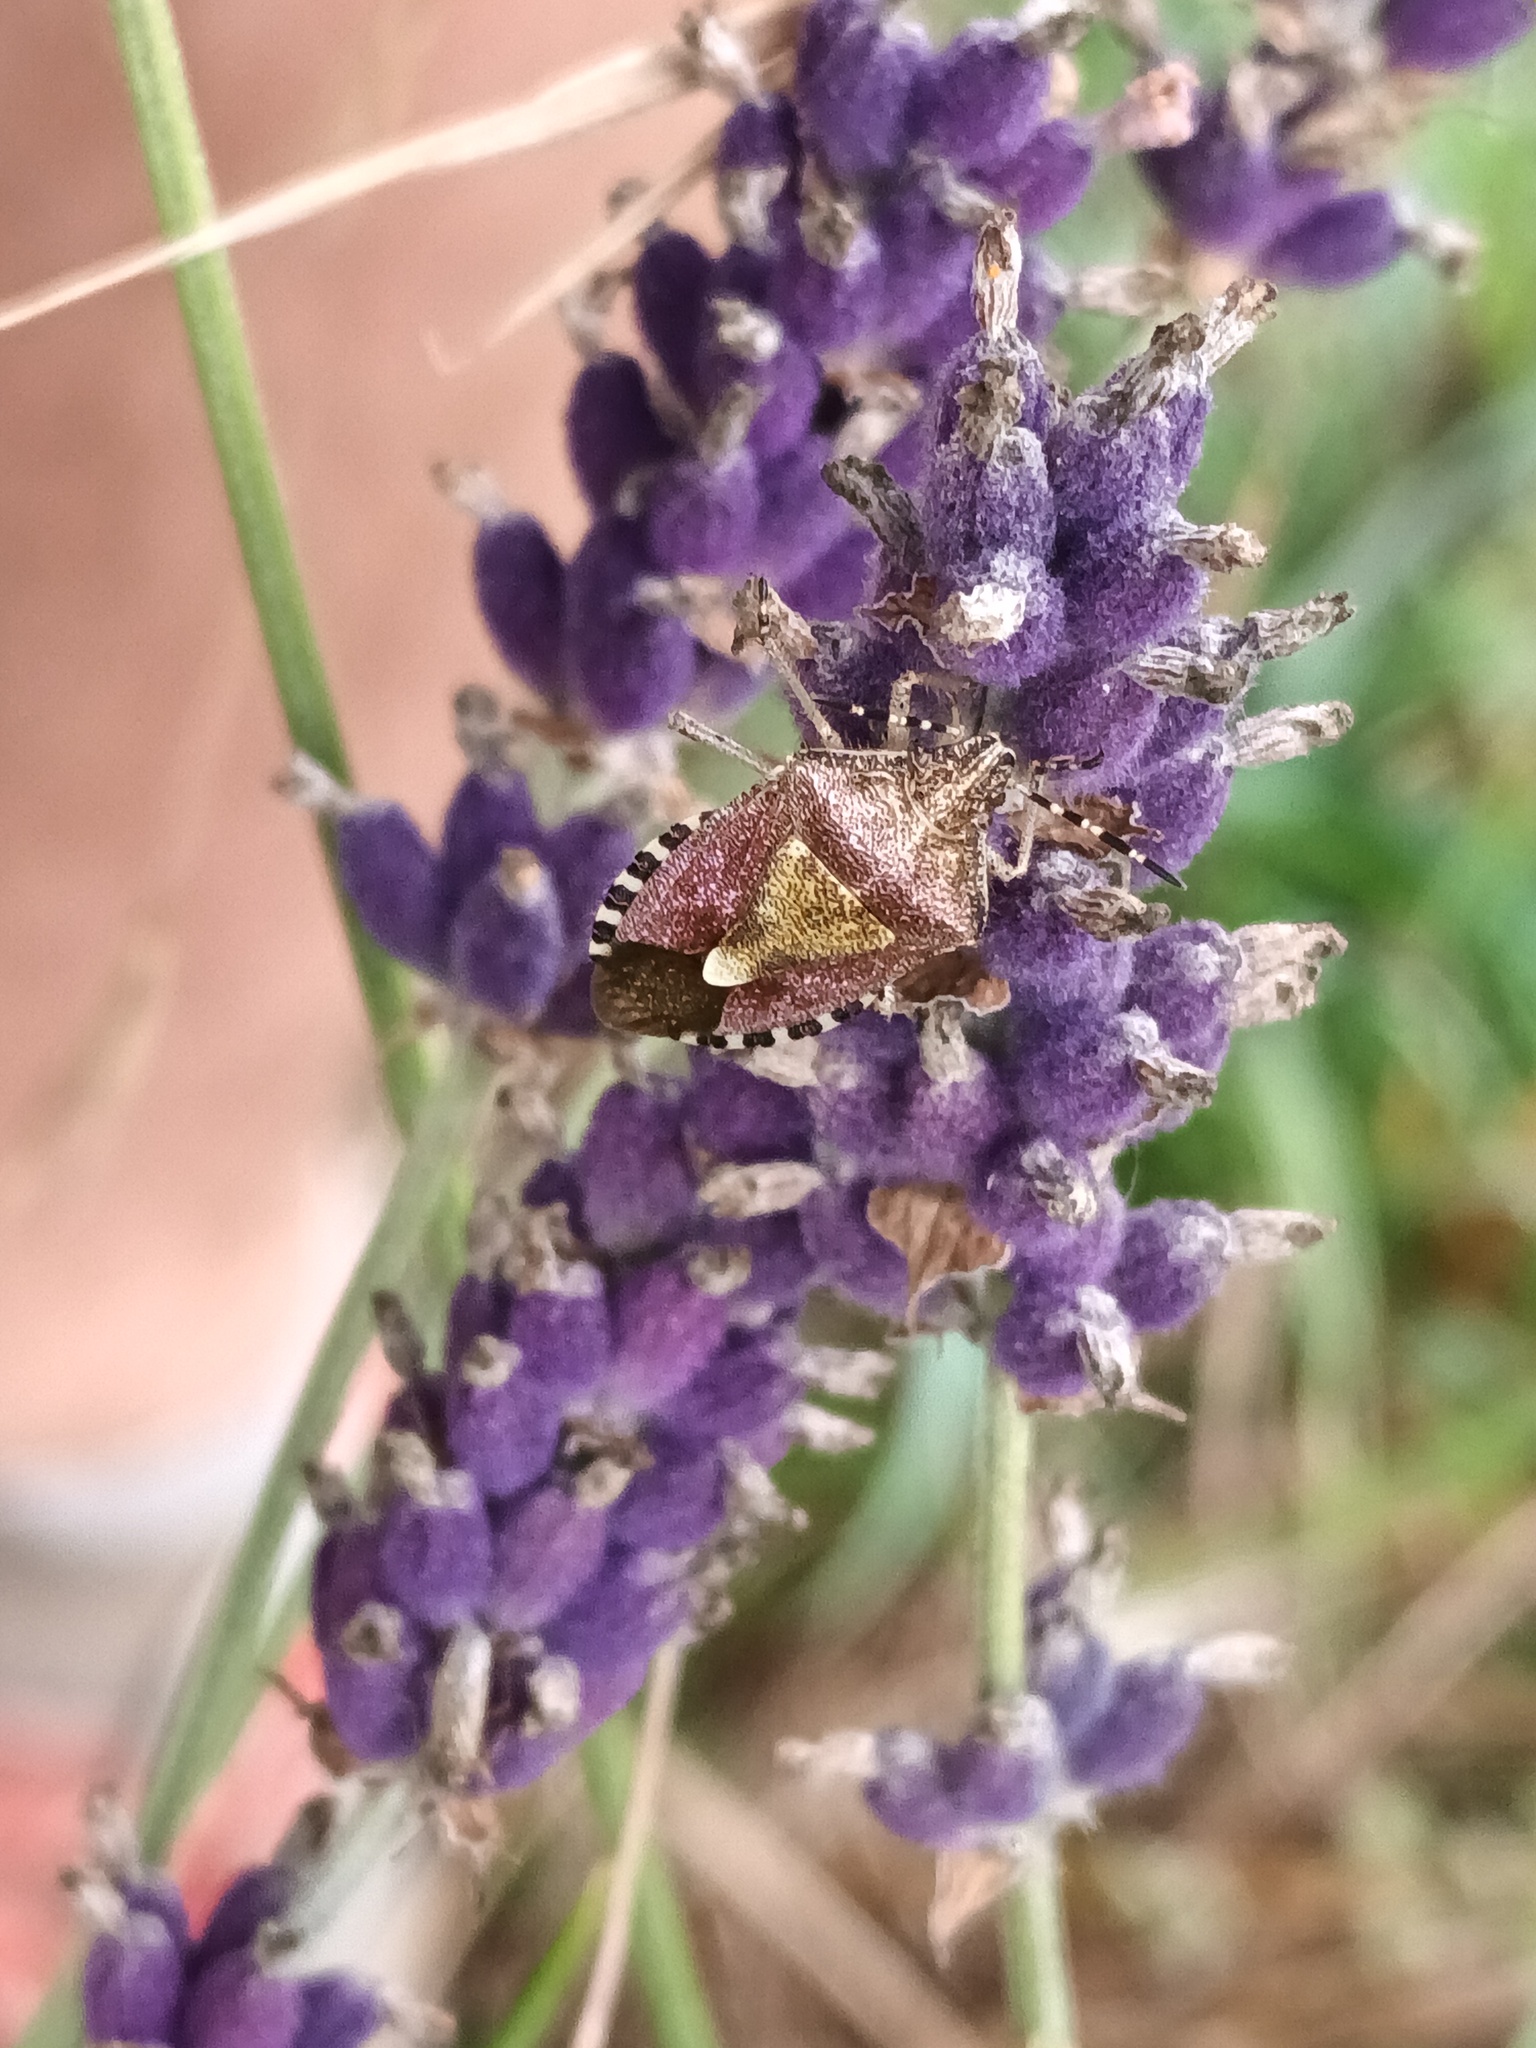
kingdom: Animalia
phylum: Arthropoda
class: Insecta
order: Hemiptera
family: Pentatomidae
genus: Dolycoris
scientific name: Dolycoris baccarum
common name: Sloe bug
